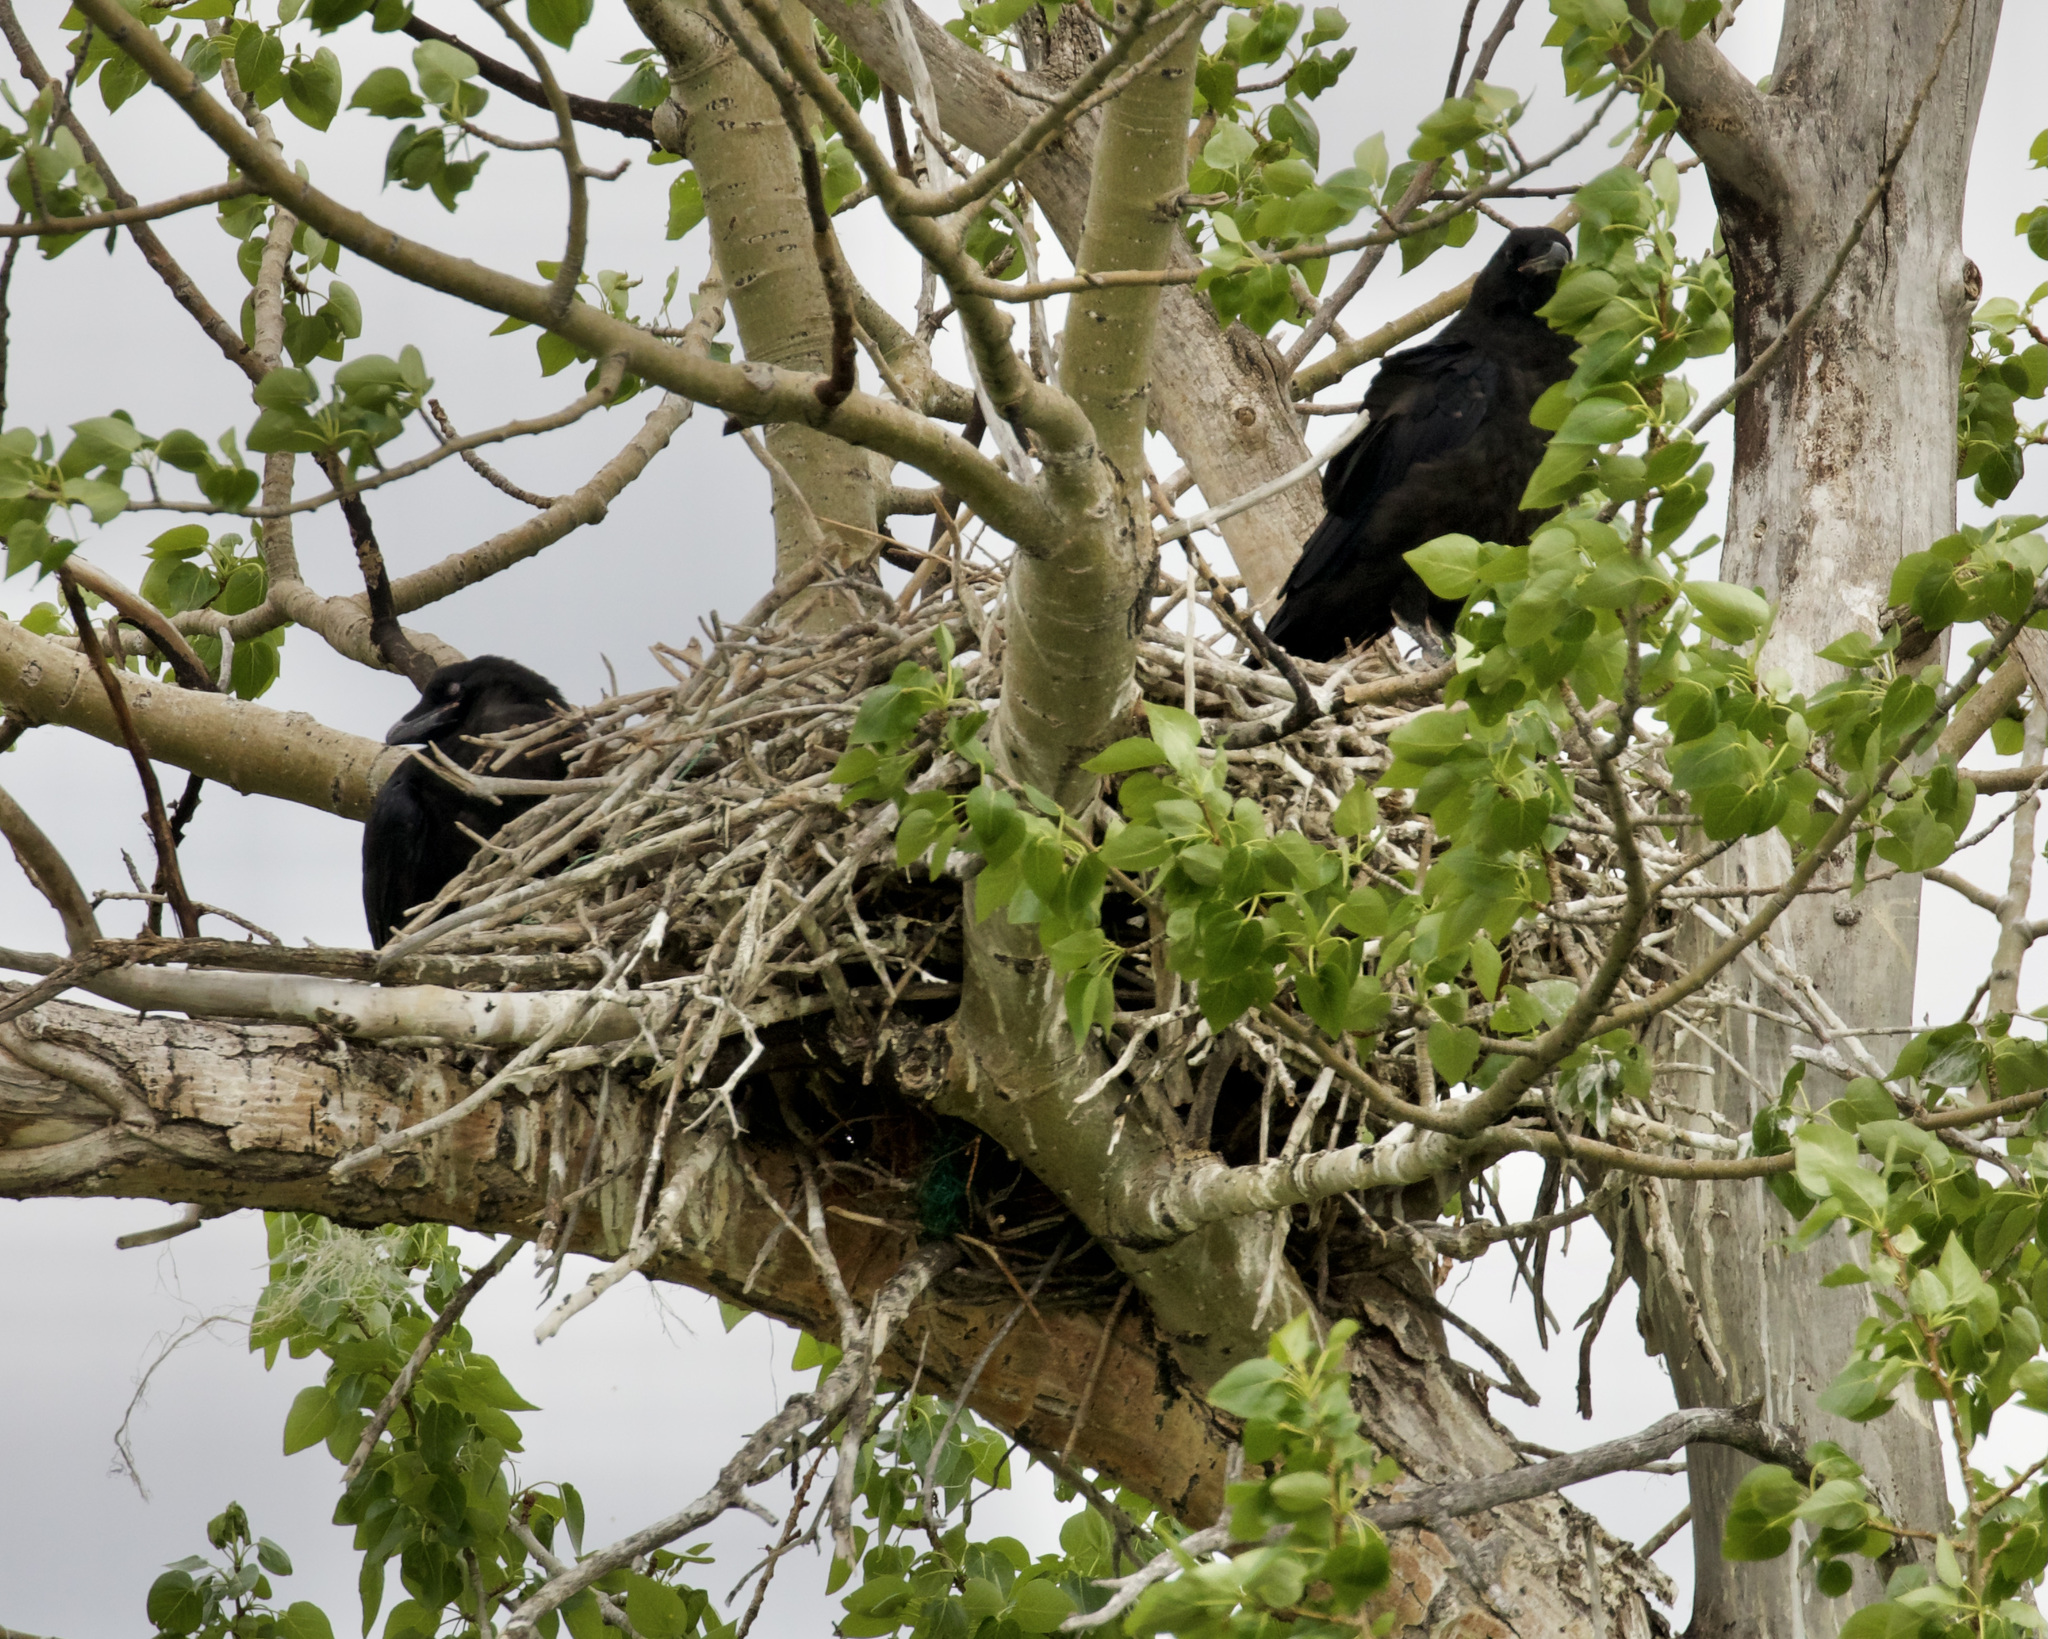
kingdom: Animalia
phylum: Chordata
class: Aves
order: Passeriformes
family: Corvidae
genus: Corvus
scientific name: Corvus corax
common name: Common raven
